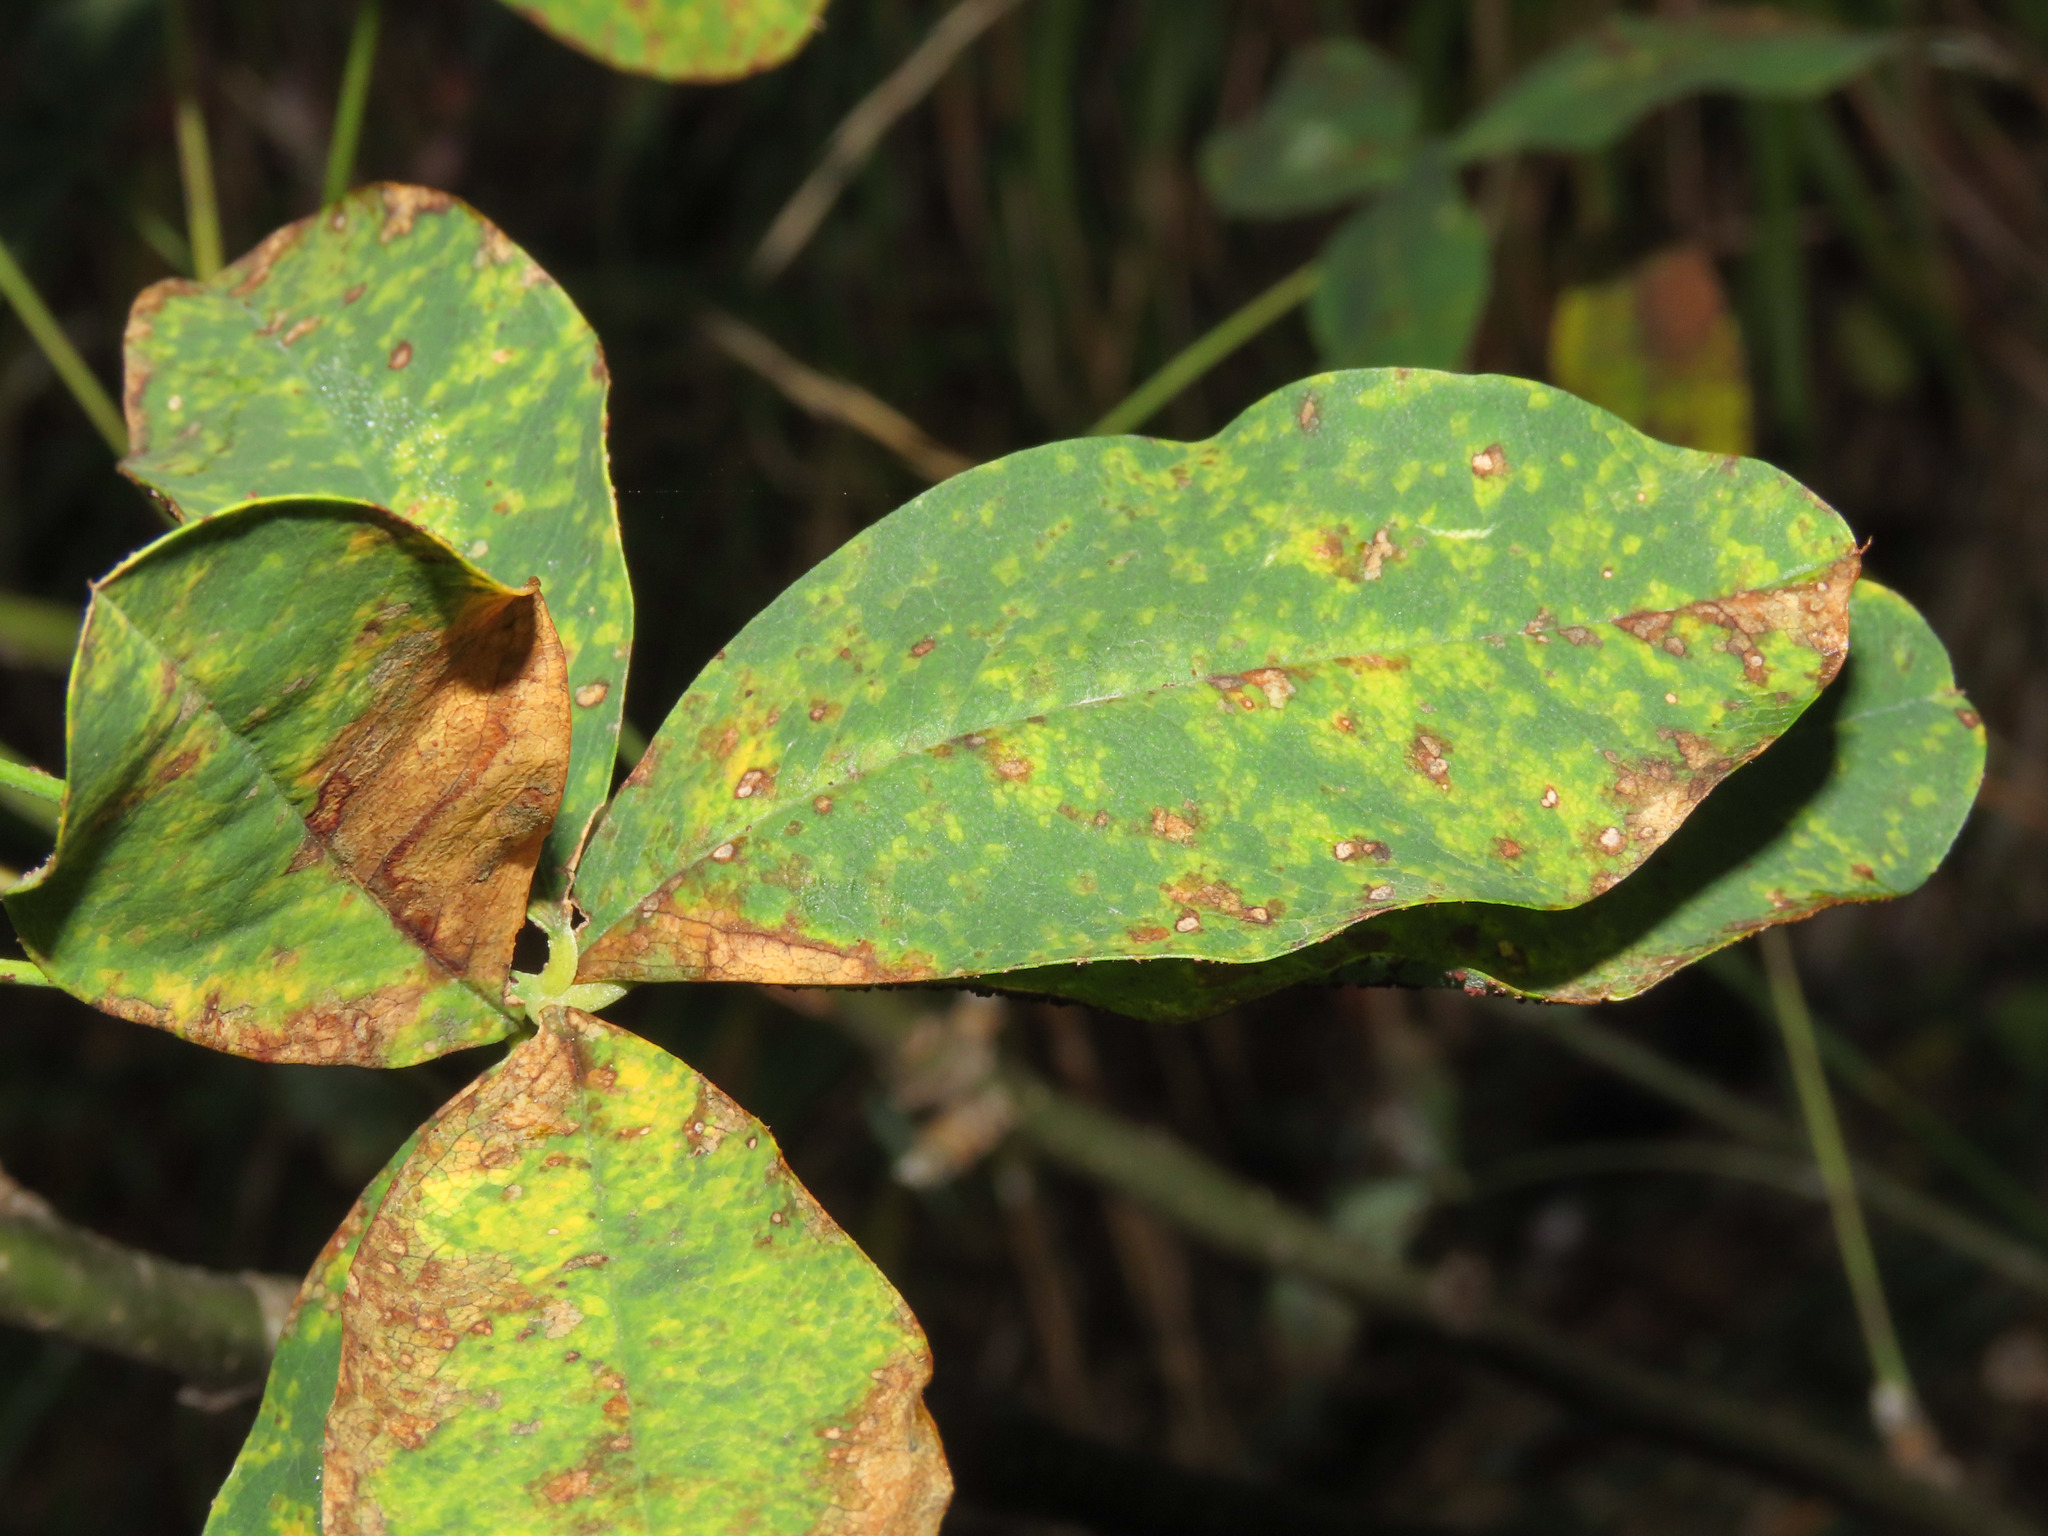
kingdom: Fungi
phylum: Basidiomycota
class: Pucciniomycetes
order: Pucciniales
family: Pucciniaceae
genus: Uromyces
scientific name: Uromyces pisi-sativi
